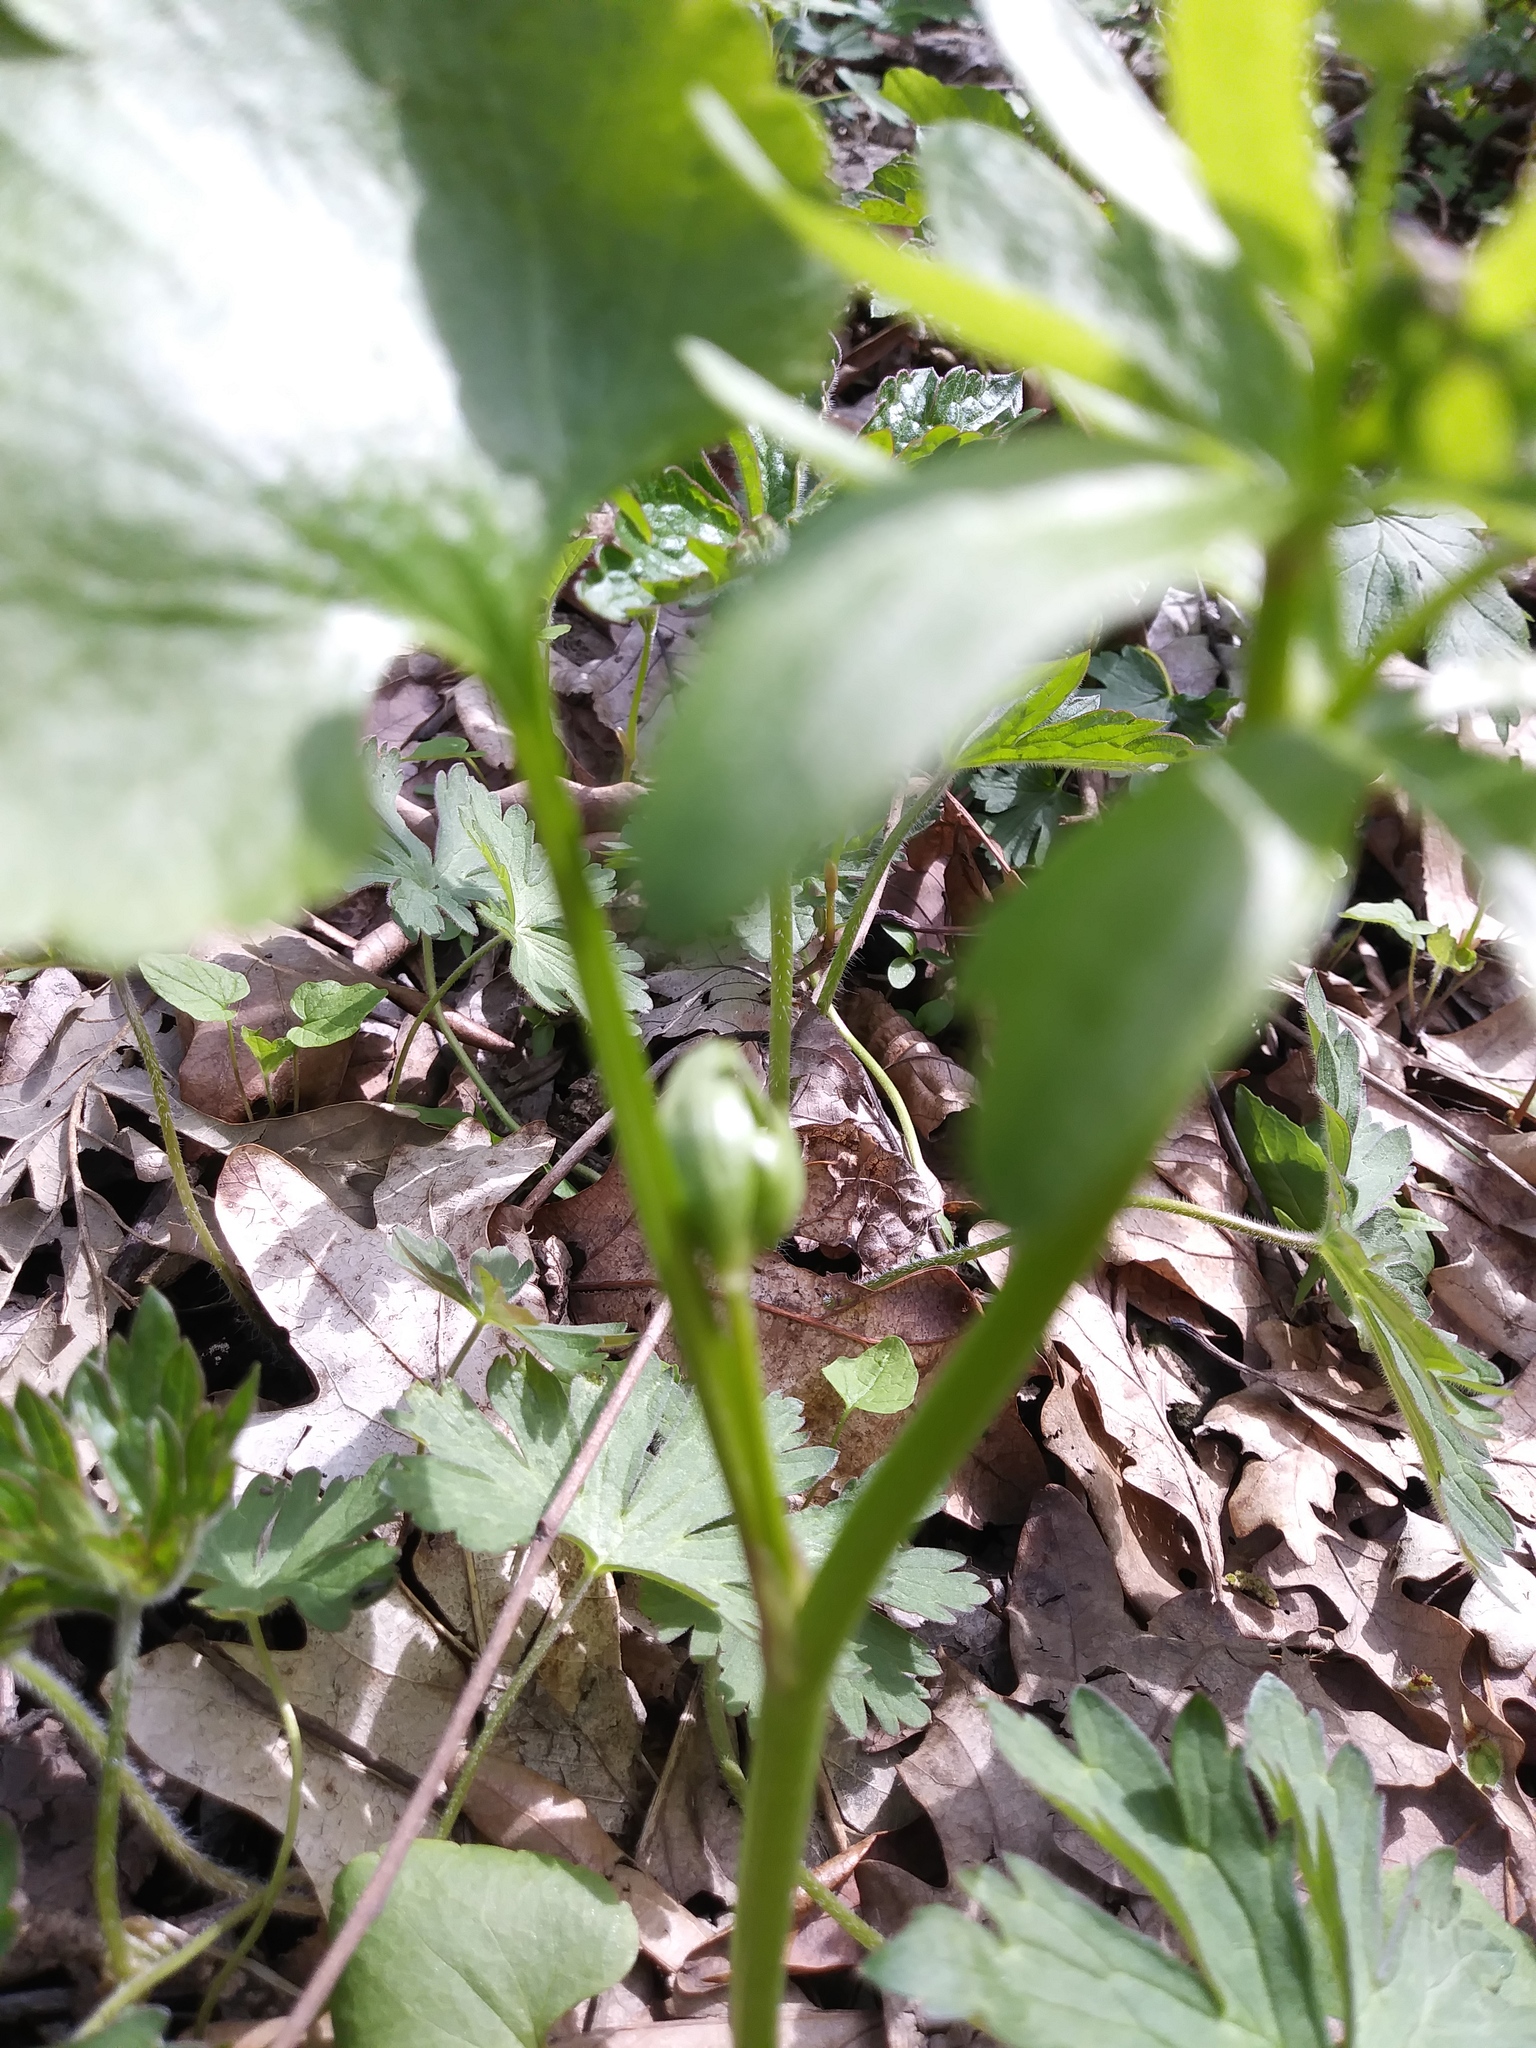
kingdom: Plantae
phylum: Tracheophyta
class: Magnoliopsida
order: Ranunculales
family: Ranunculaceae
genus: Ranunculus
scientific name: Ranunculus abortivus
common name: Early wood buttercup
